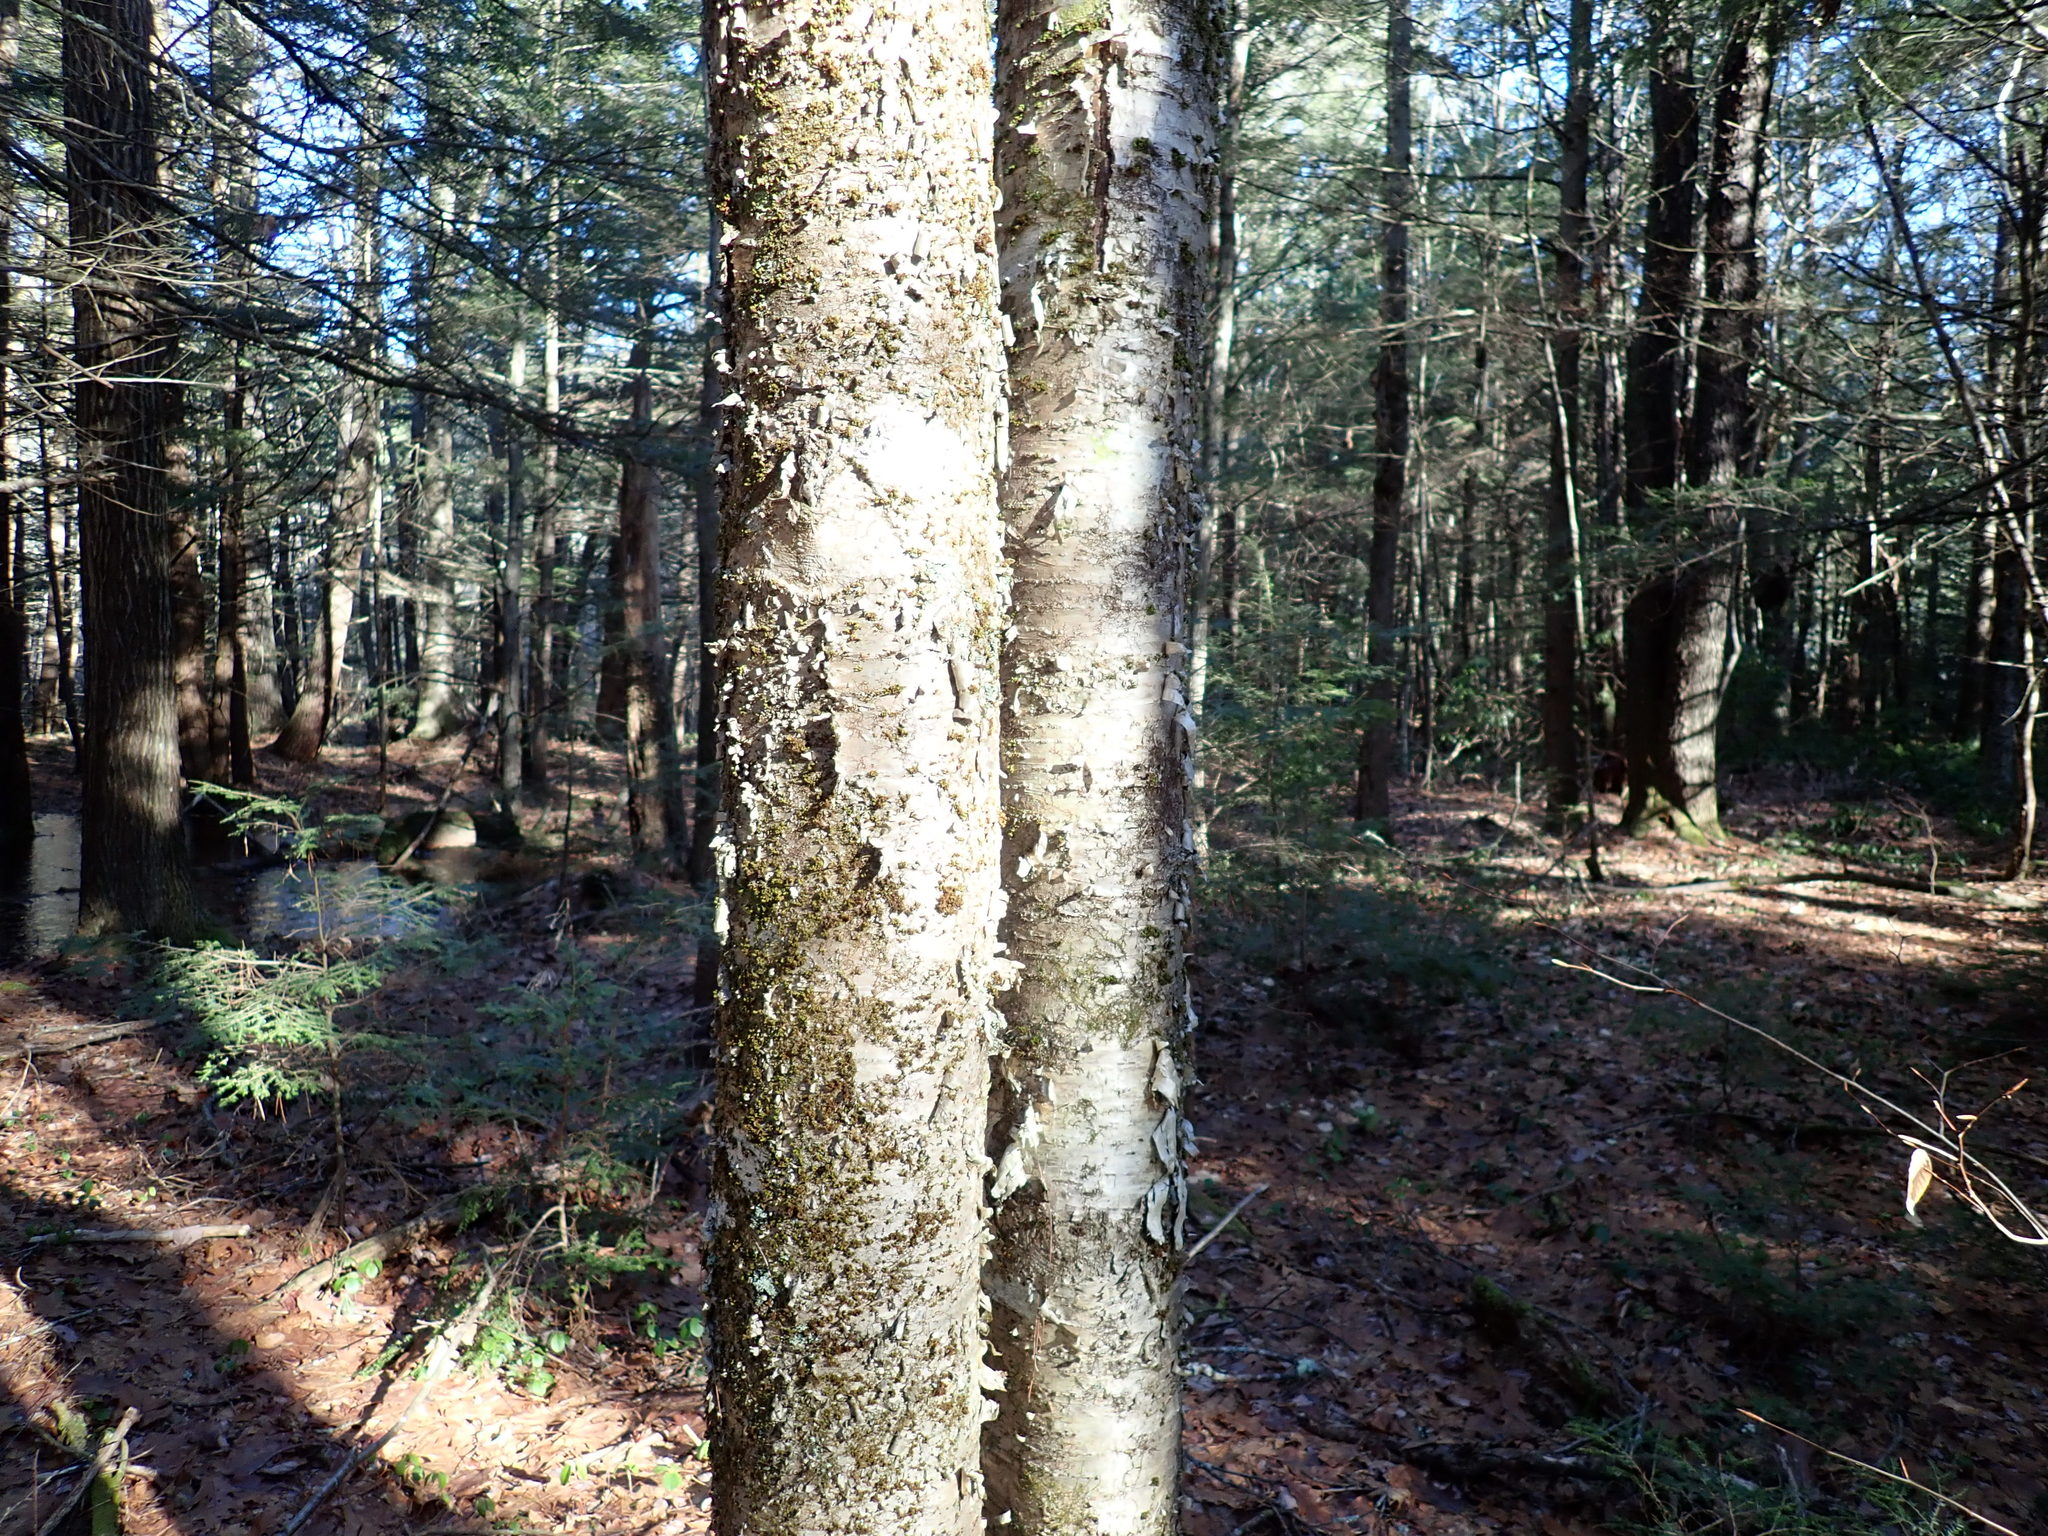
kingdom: Plantae
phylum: Tracheophyta
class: Magnoliopsida
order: Fagales
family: Betulaceae
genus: Betula
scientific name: Betula alleghaniensis
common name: Yellow birch
